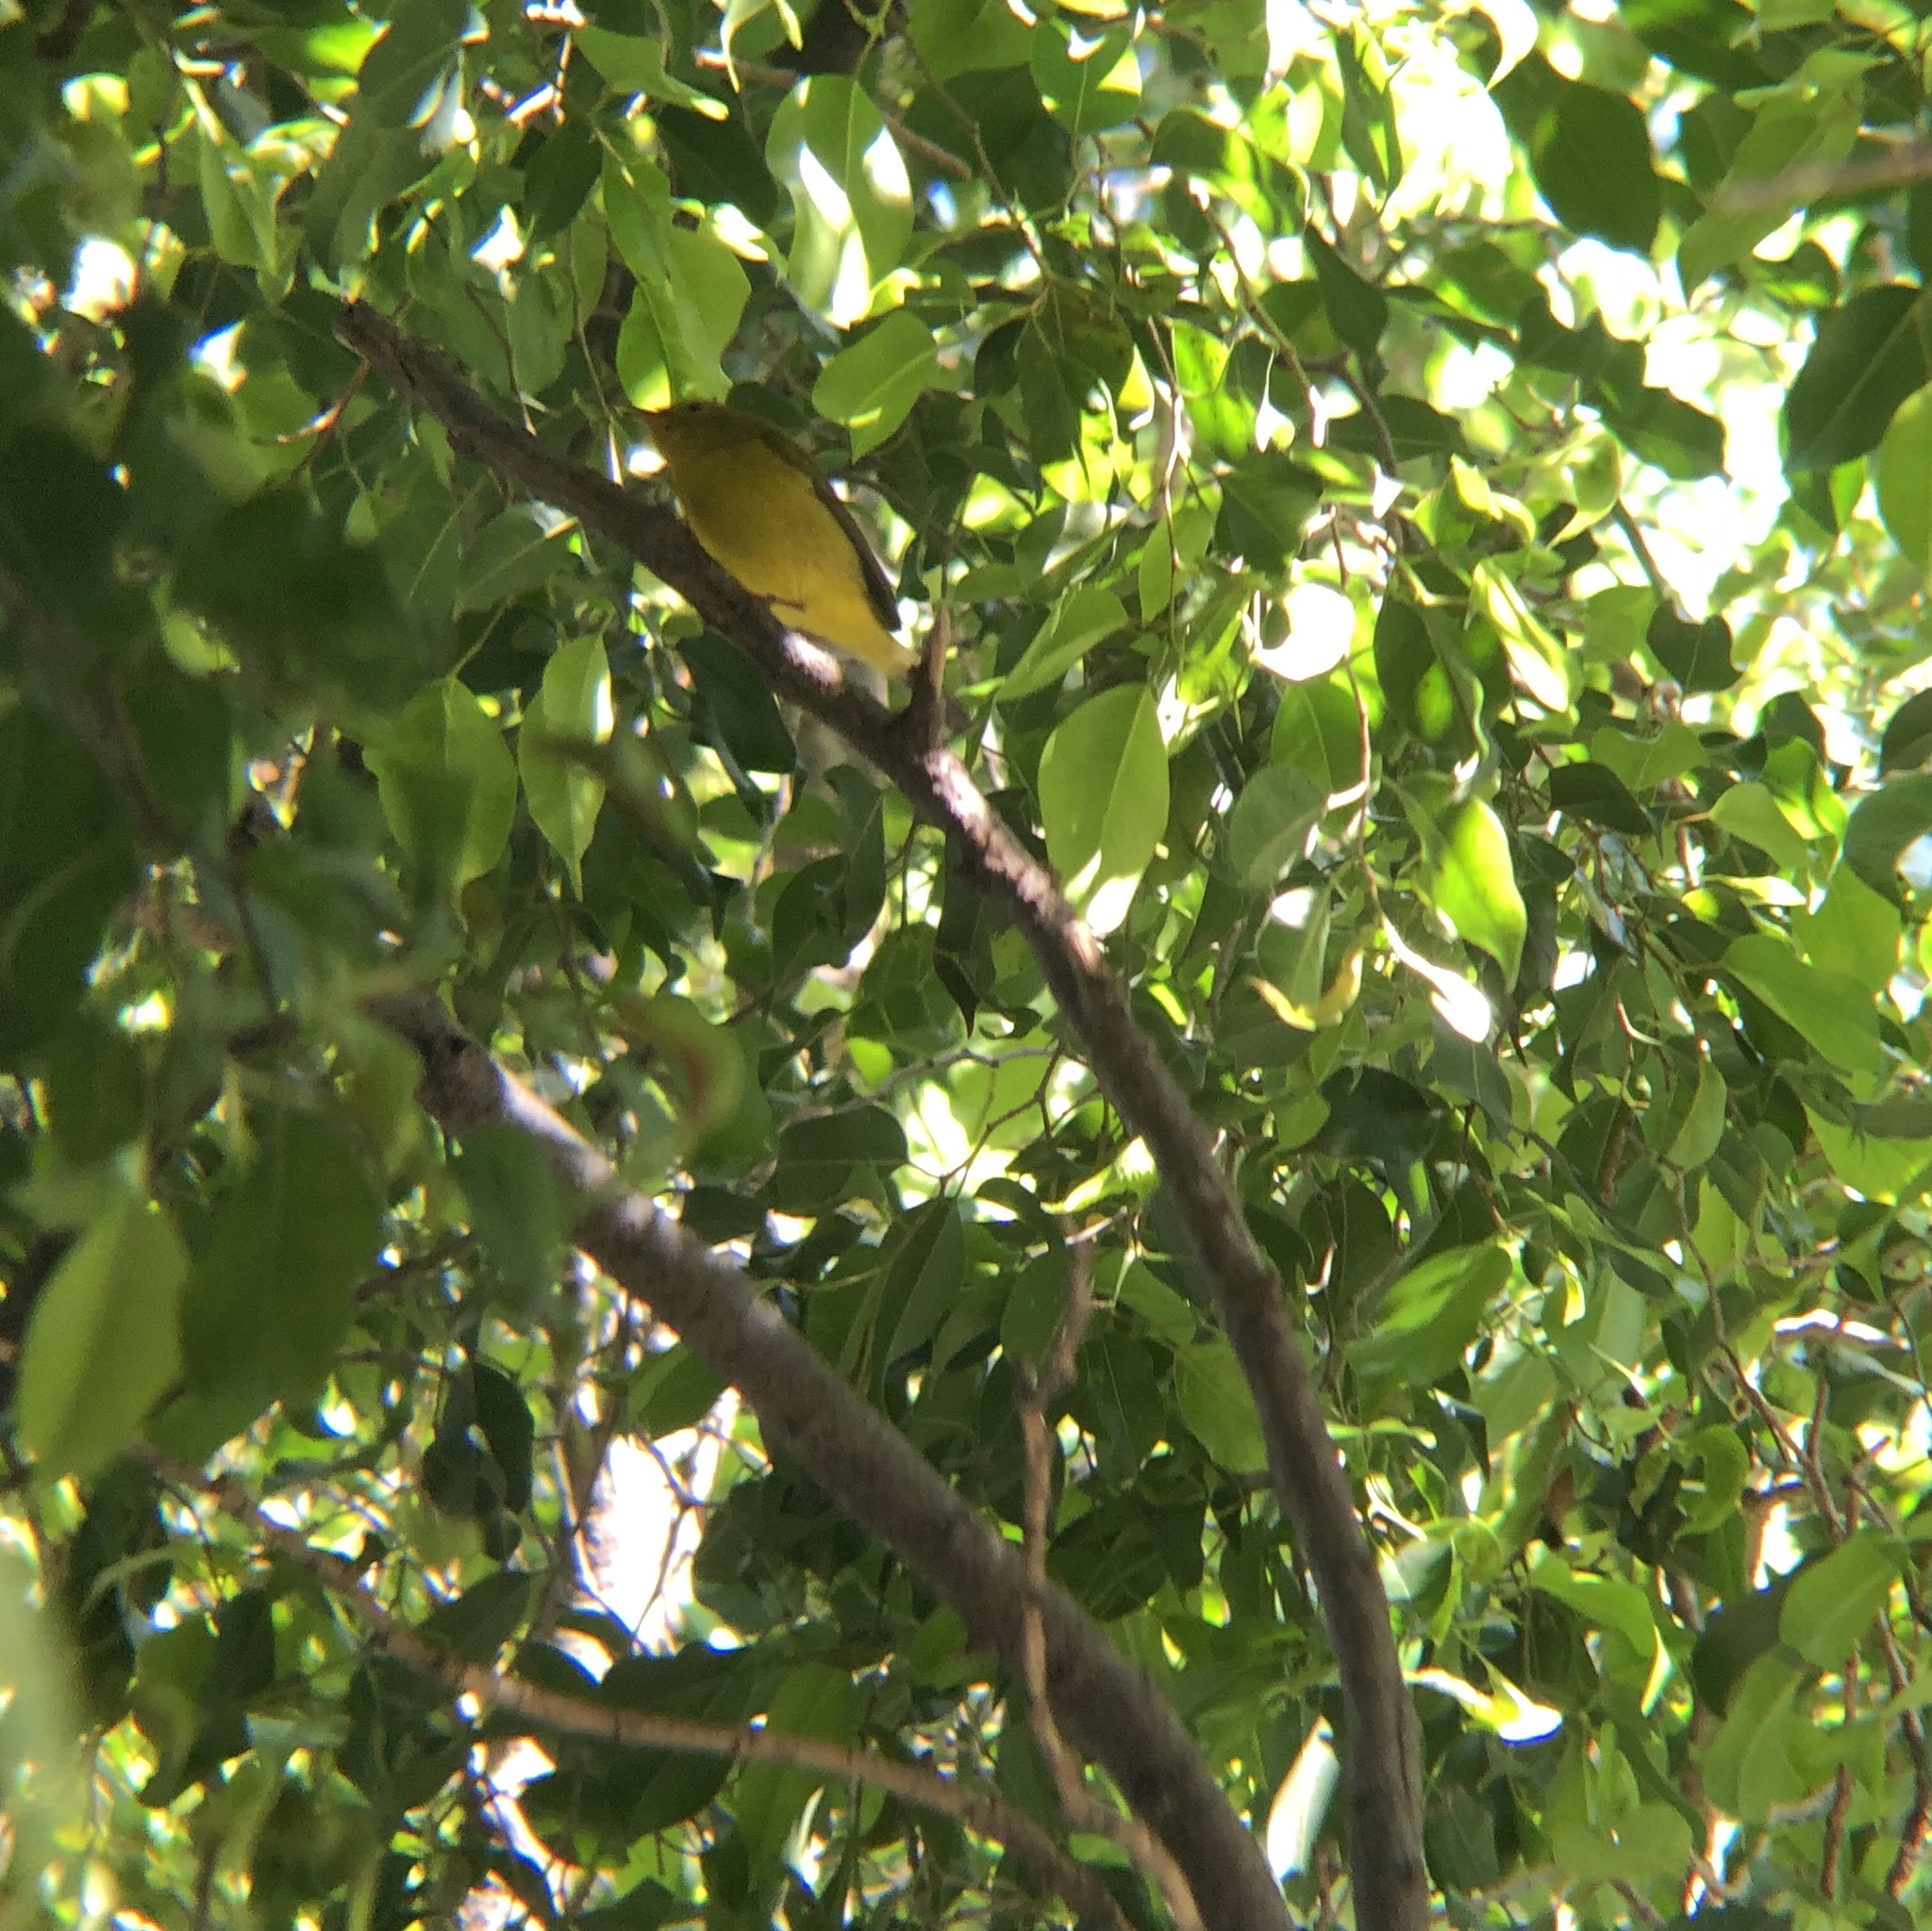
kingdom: Animalia
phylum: Chordata
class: Aves
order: Passeriformes
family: Parulidae
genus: Cardellina
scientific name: Cardellina pusilla
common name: Wilson's warbler
